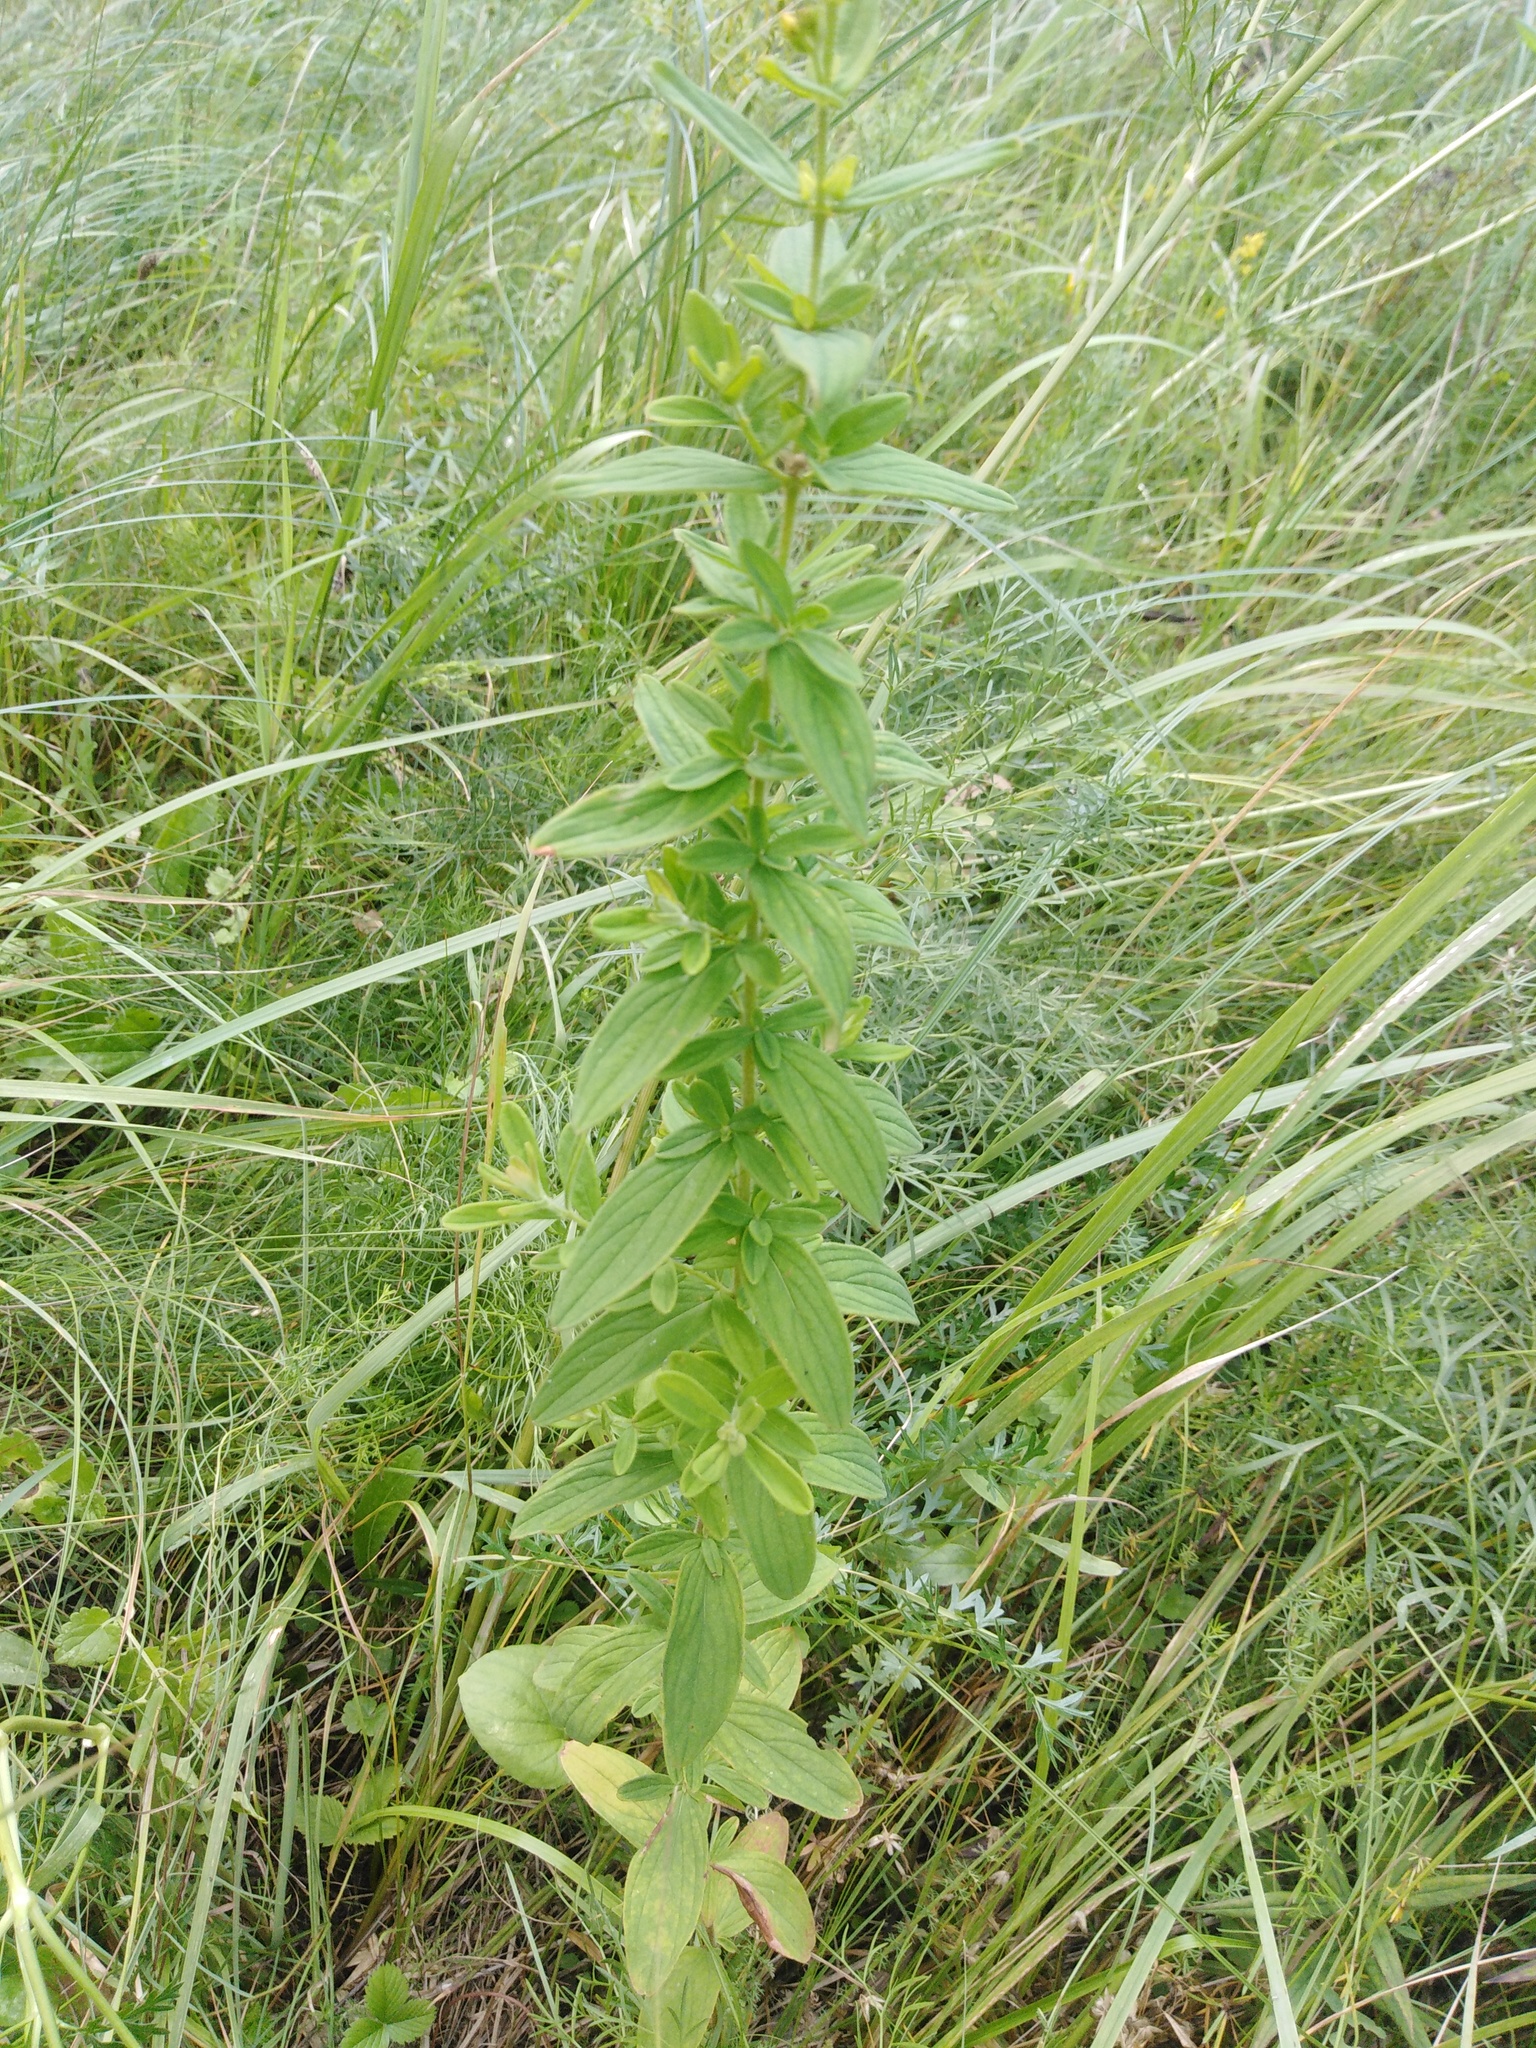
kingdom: Plantae
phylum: Tracheophyta
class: Magnoliopsida
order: Malpighiales
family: Hypericaceae
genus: Hypericum
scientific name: Hypericum hirsutum
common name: Hairy st. john's-wort
